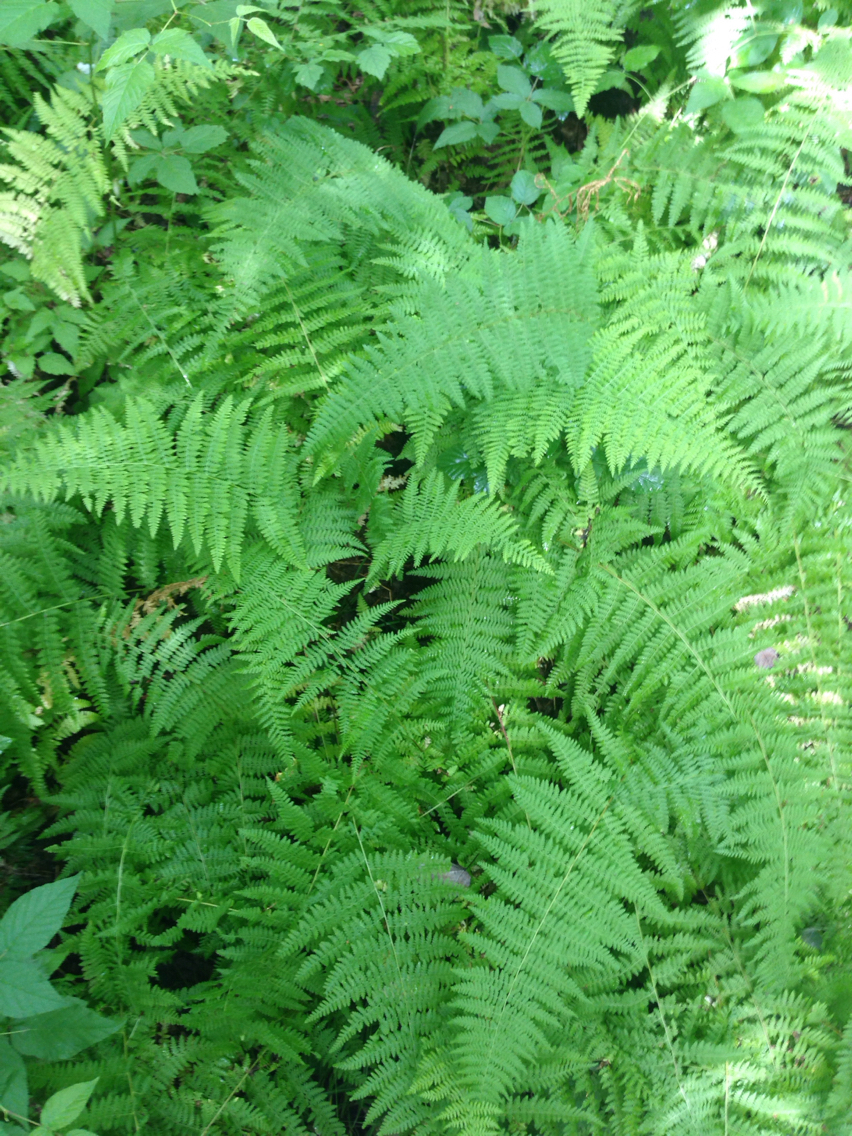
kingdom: Plantae
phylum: Tracheophyta
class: Polypodiopsida
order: Polypodiales
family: Dennstaedtiaceae
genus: Sitobolium
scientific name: Sitobolium punctilobum
